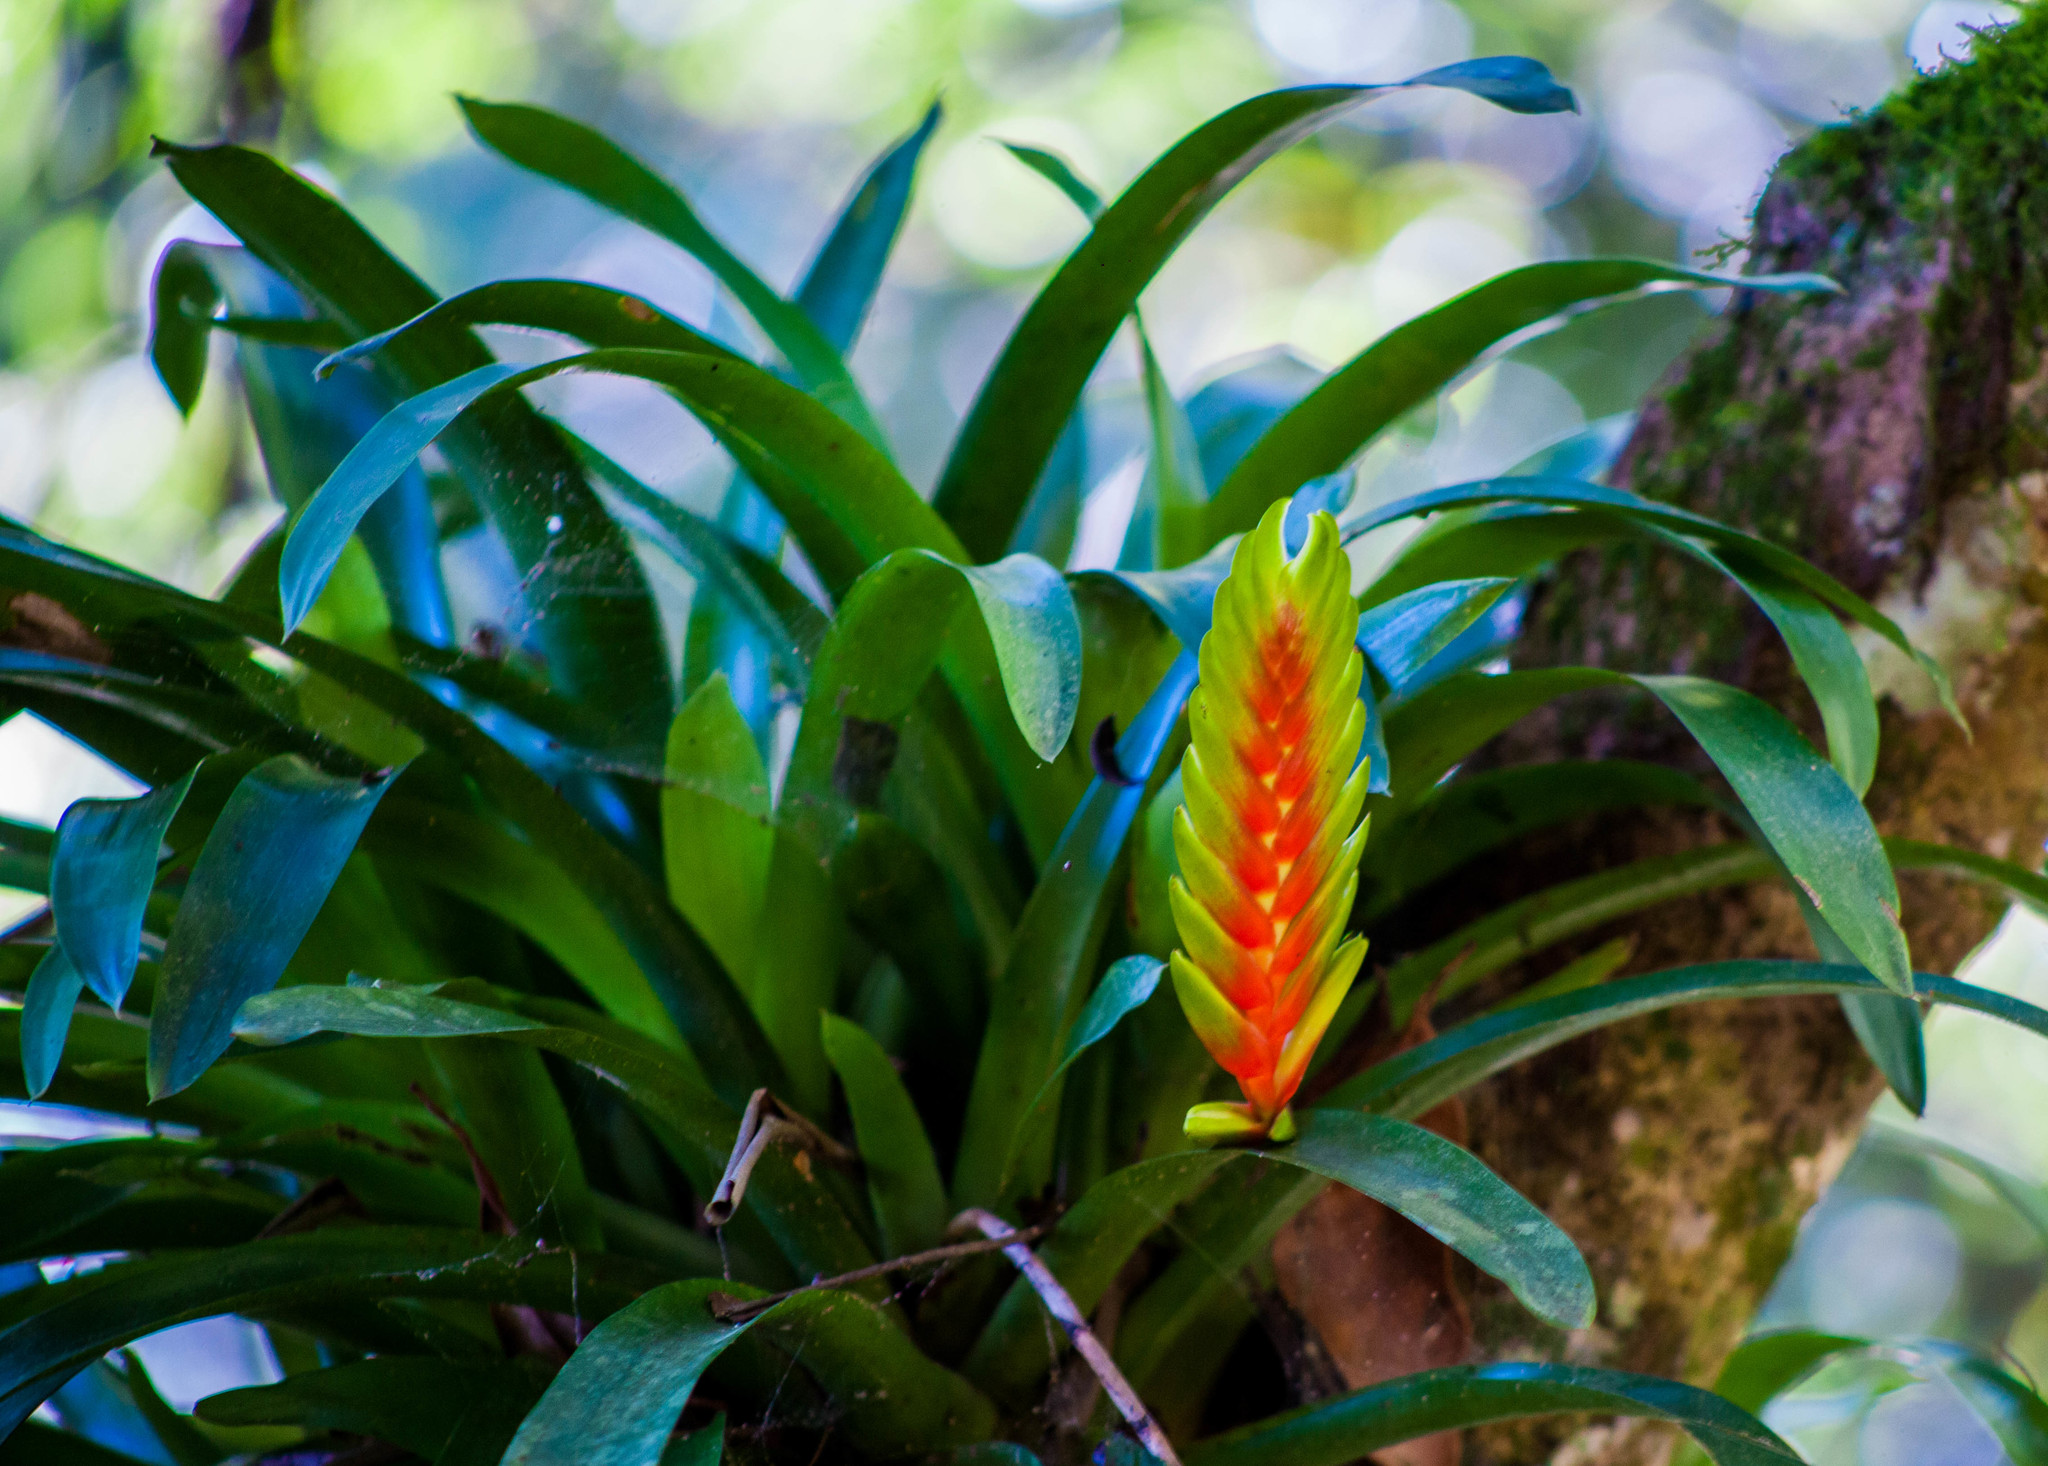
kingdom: Plantae
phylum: Tracheophyta
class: Liliopsida
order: Poales
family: Bromeliaceae
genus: Vriesea
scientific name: Vriesea interrogatoria
